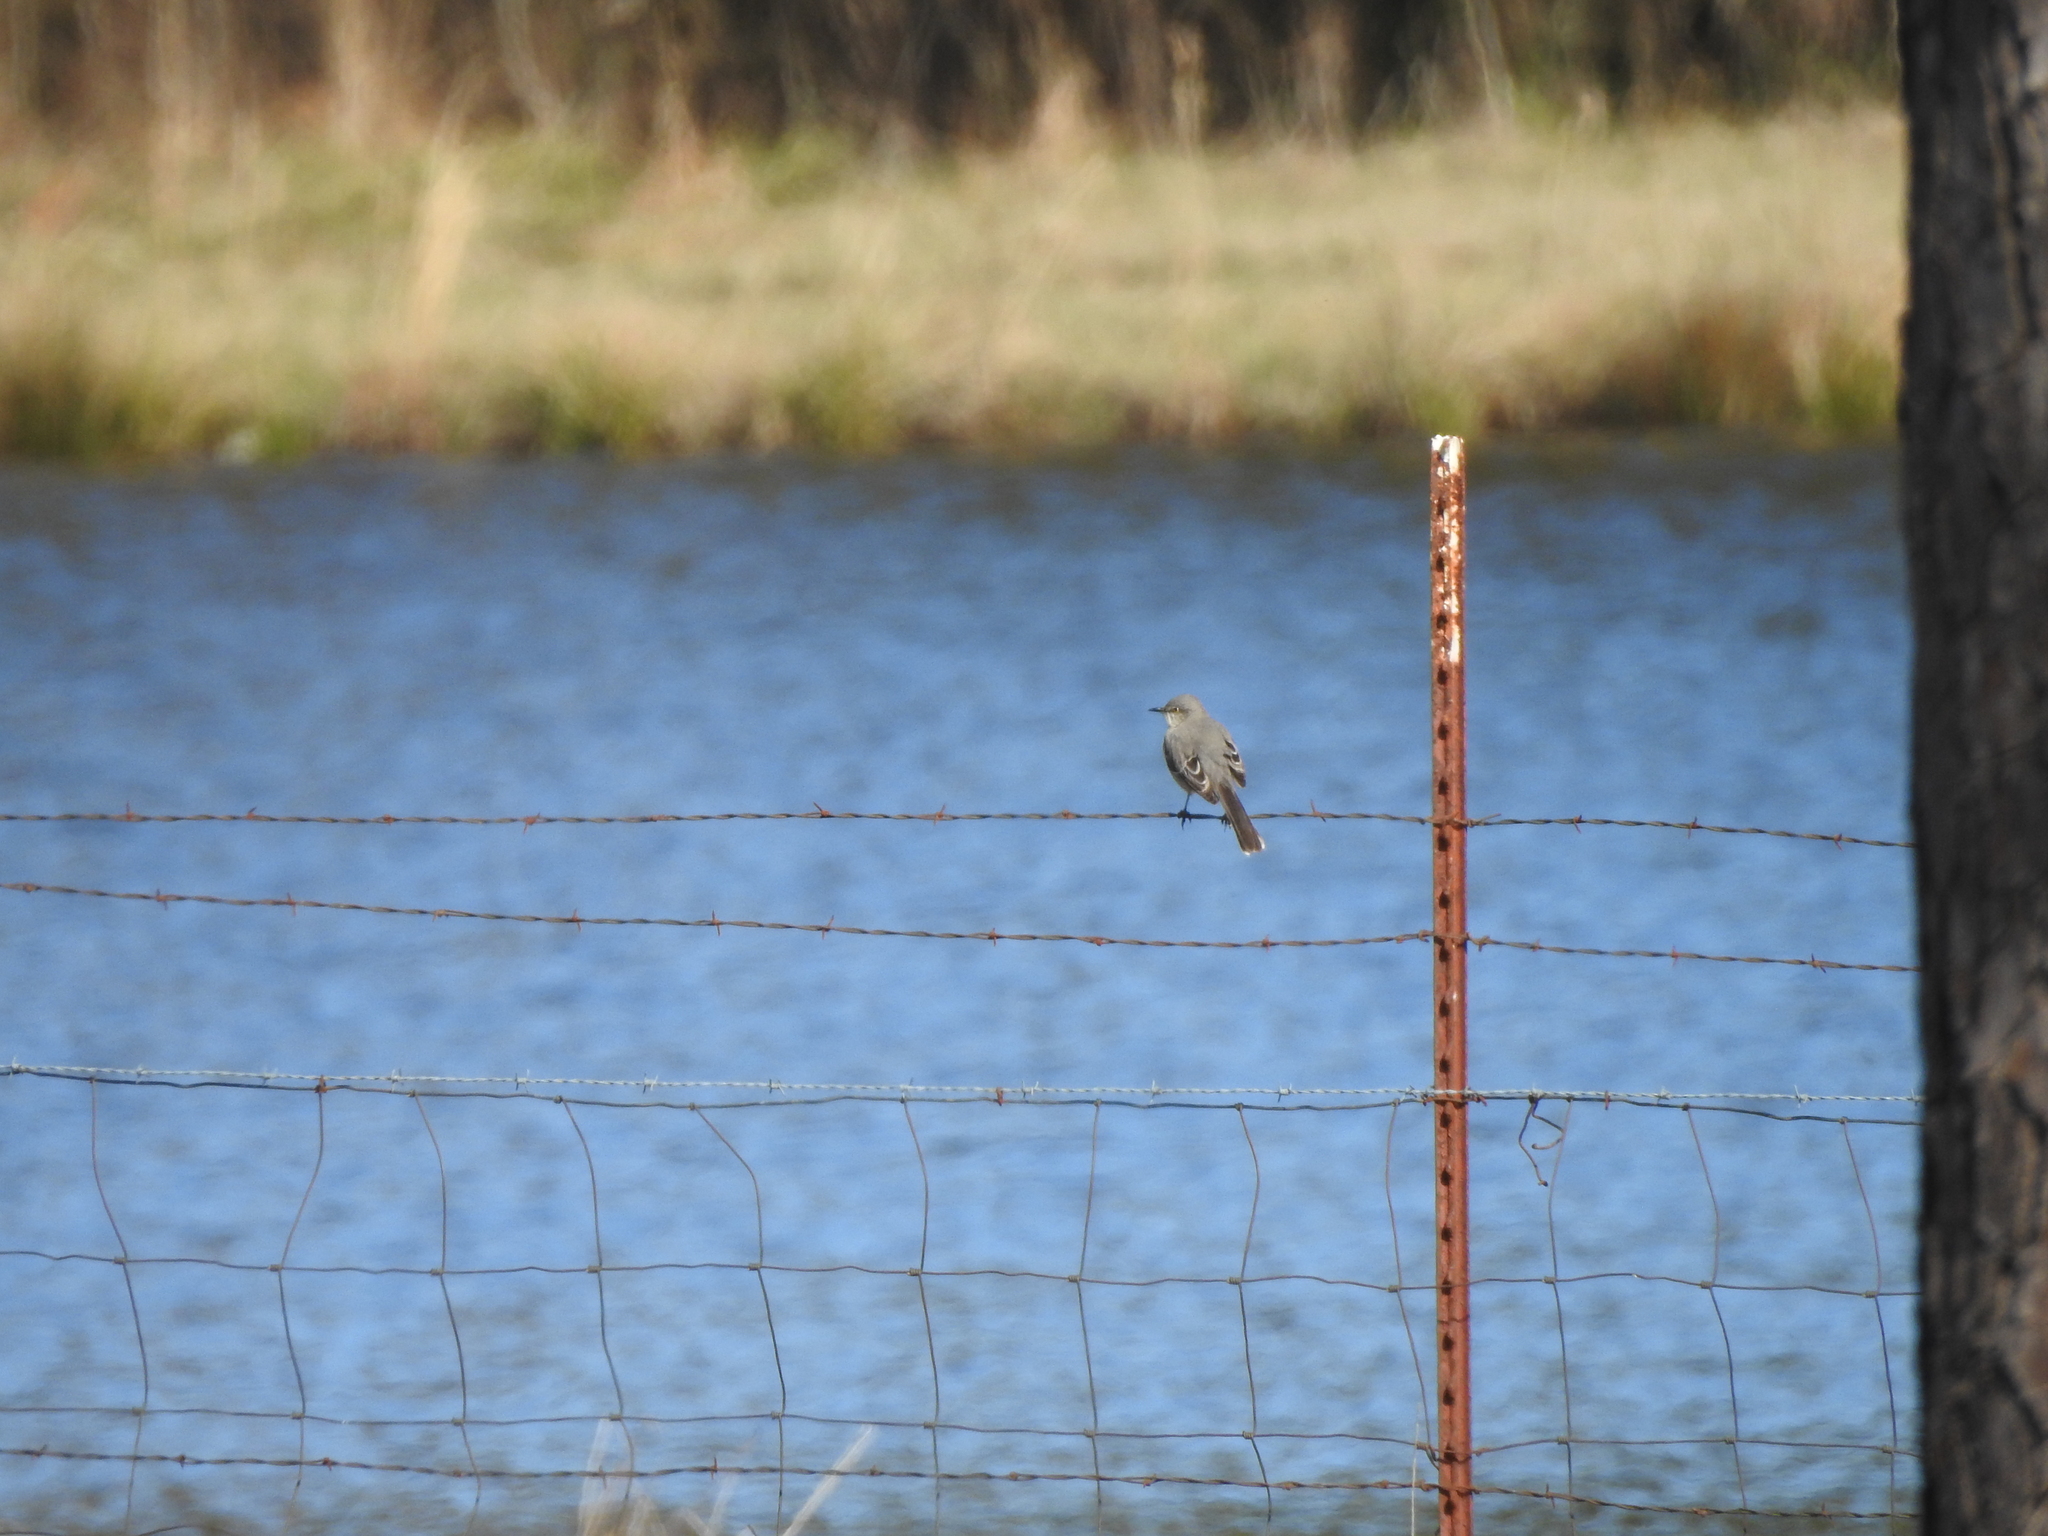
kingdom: Animalia
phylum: Chordata
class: Aves
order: Passeriformes
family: Mimidae
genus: Mimus
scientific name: Mimus polyglottos
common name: Northern mockingbird
